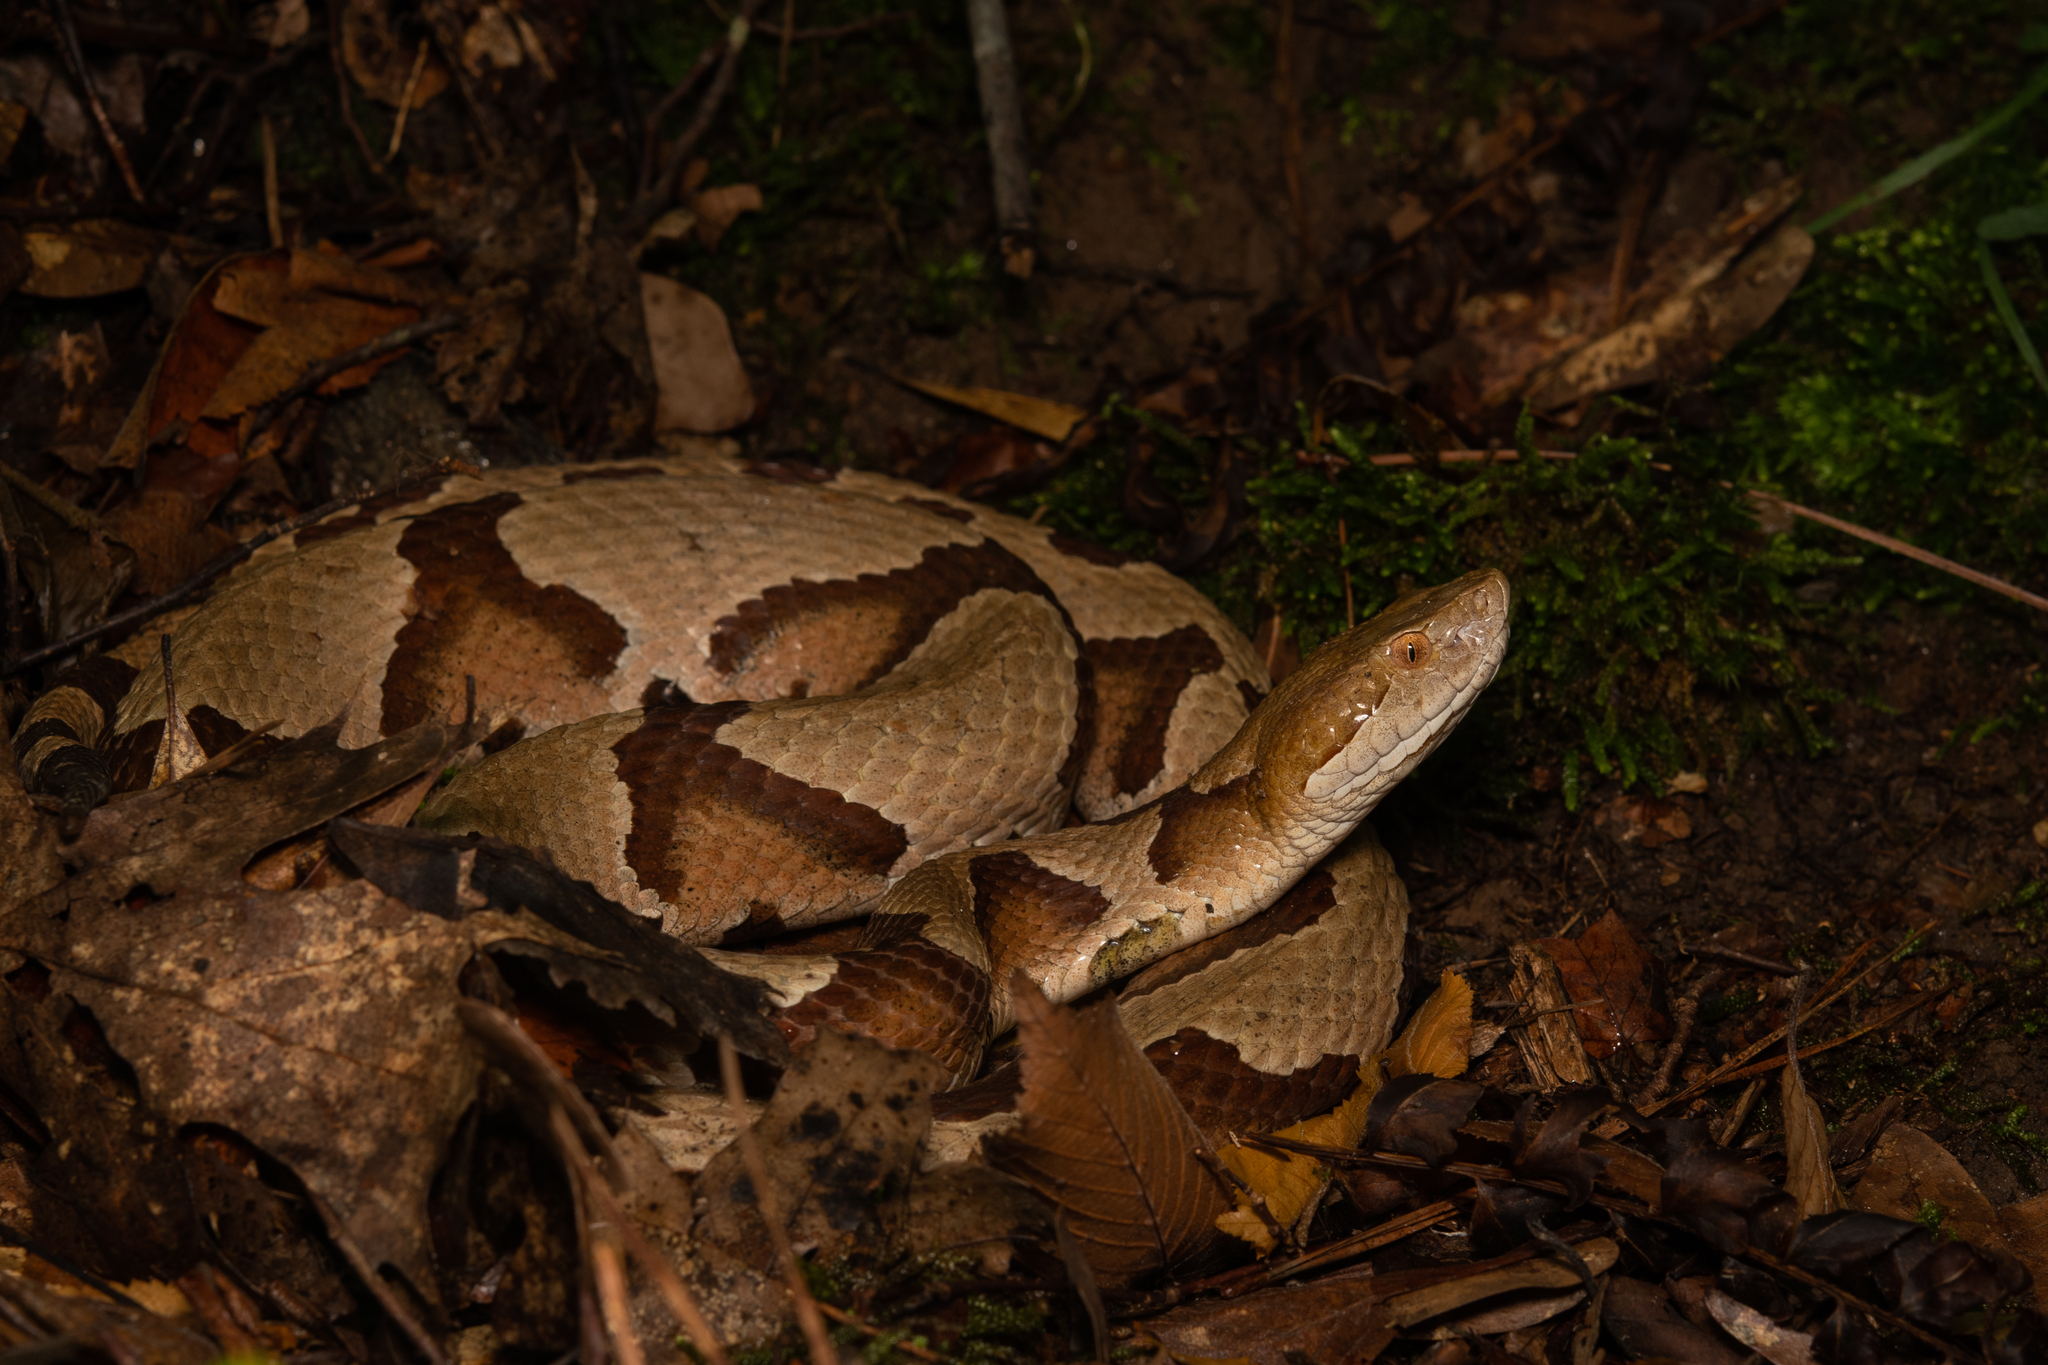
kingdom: Animalia
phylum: Chordata
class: Squamata
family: Viperidae
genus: Agkistrodon
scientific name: Agkistrodon contortrix
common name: Northern copperhead
